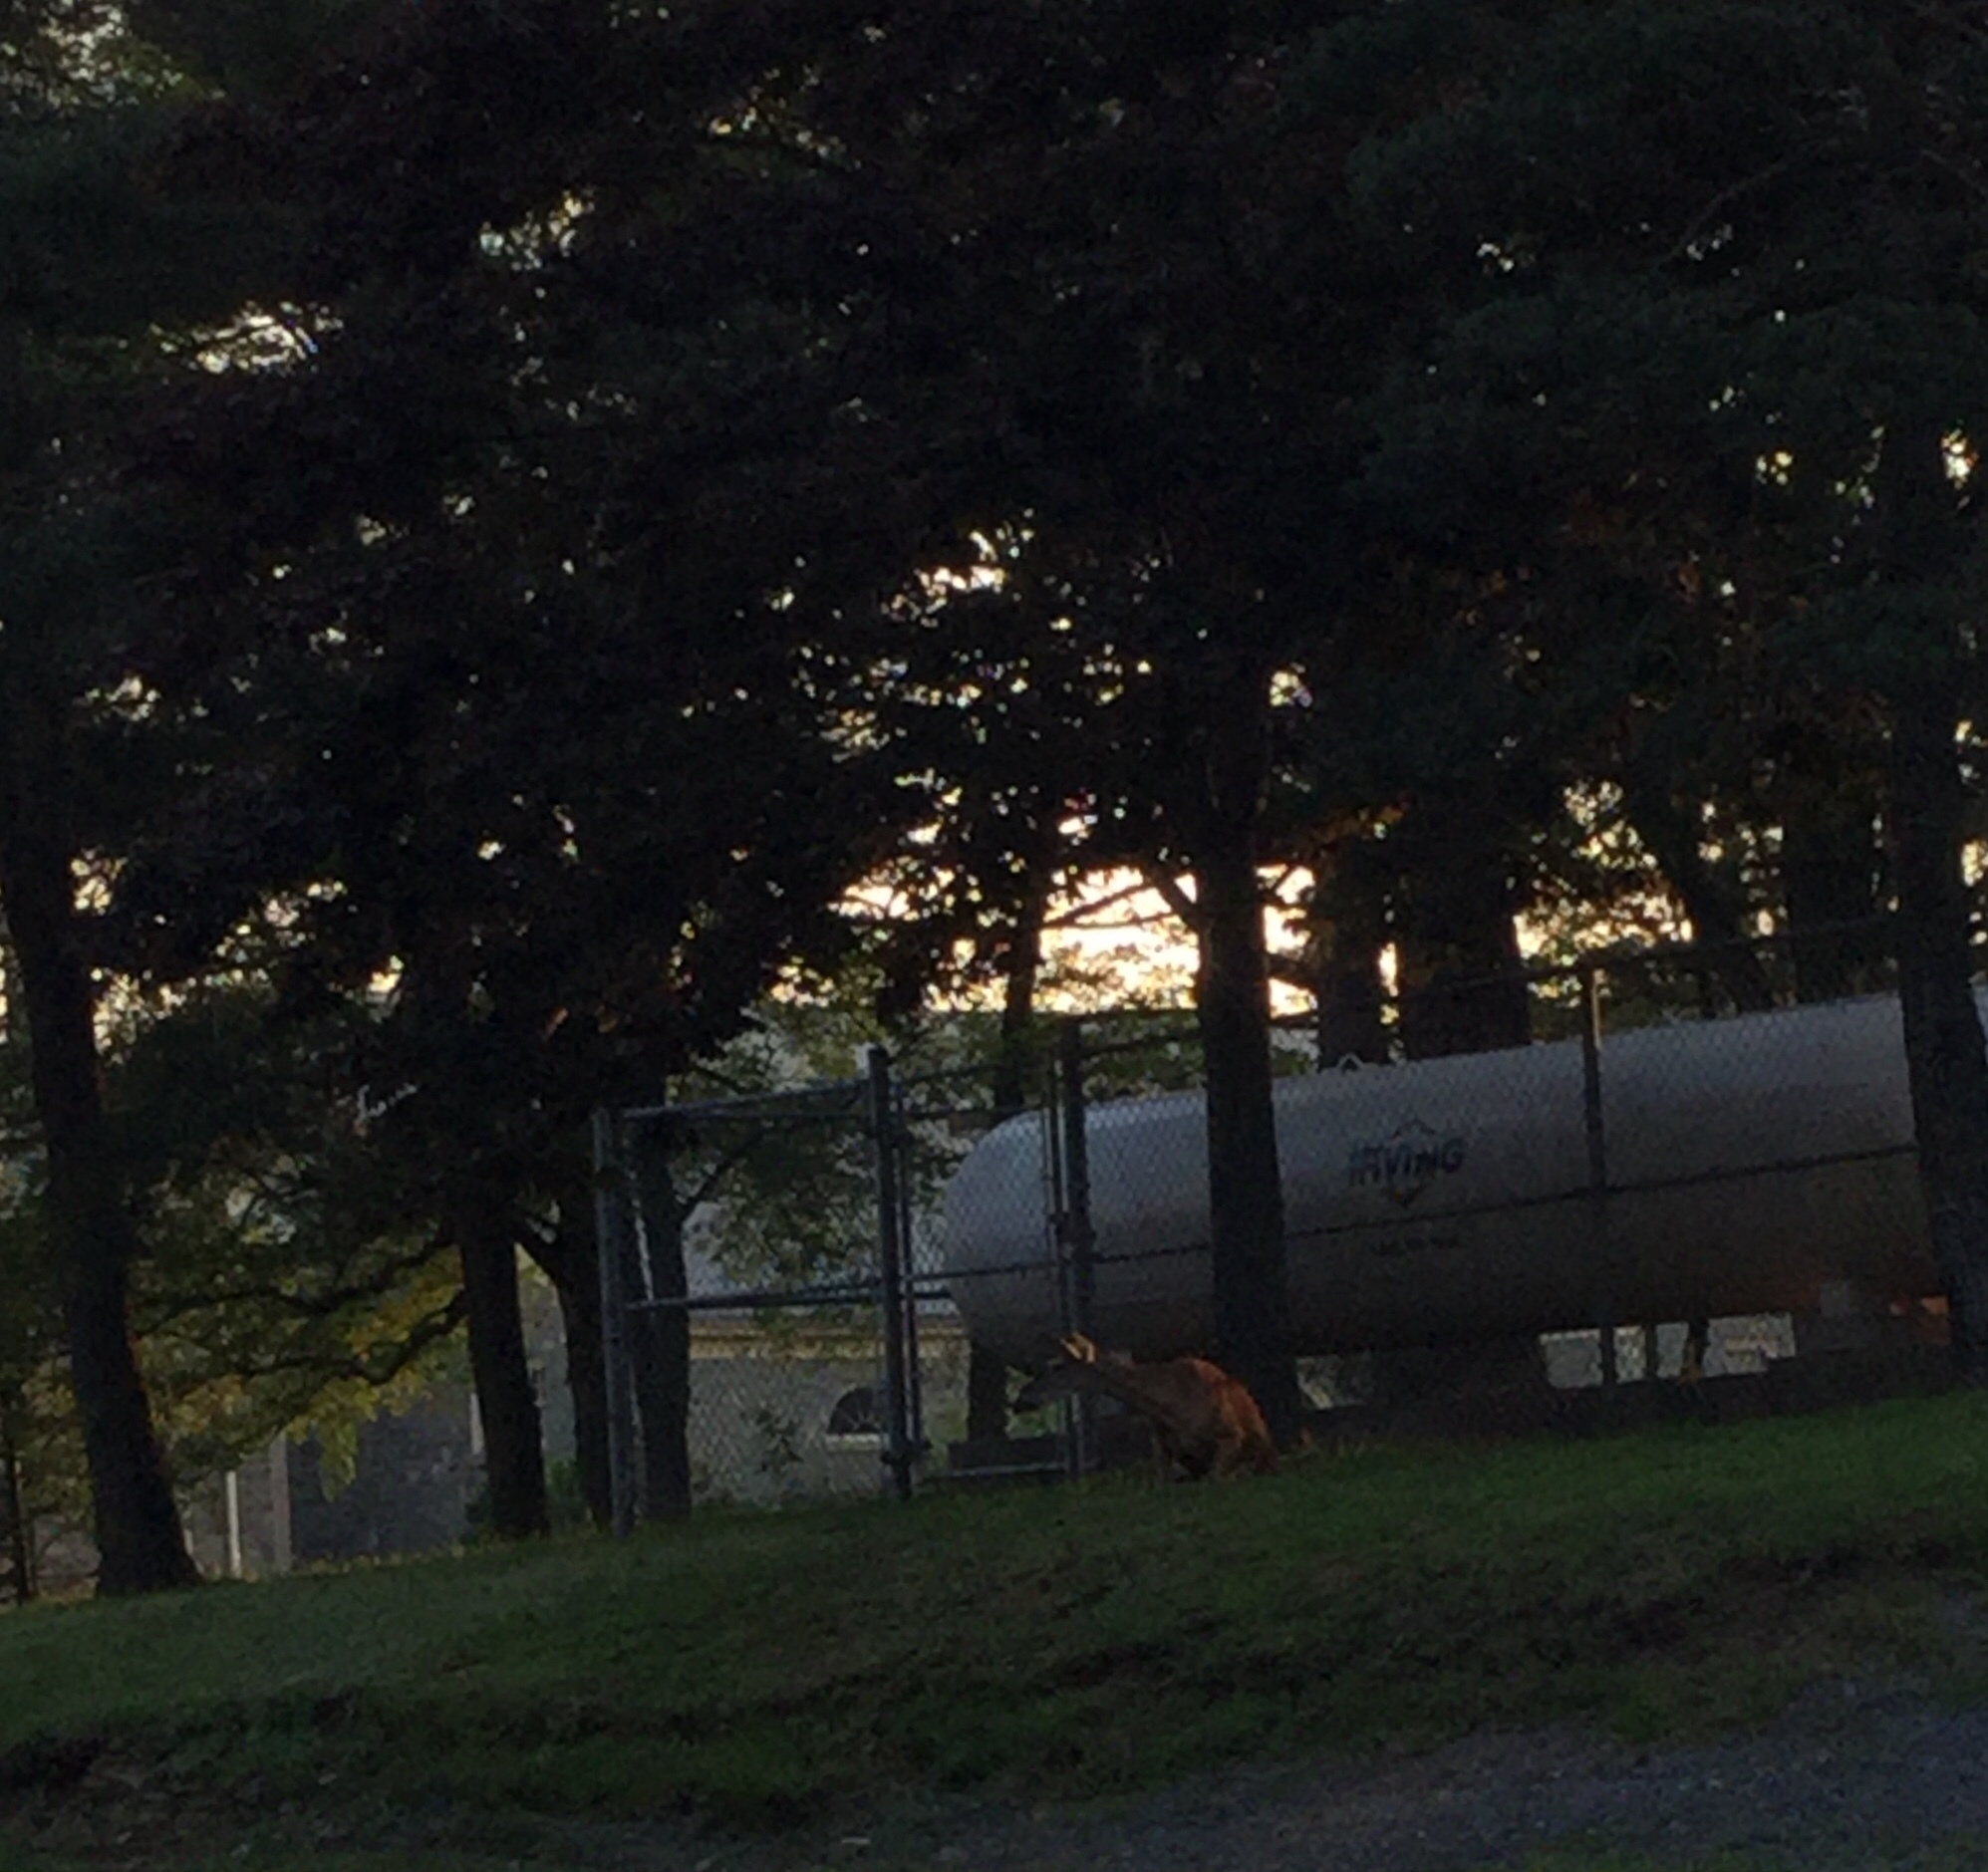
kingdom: Animalia
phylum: Chordata
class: Mammalia
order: Artiodactyla
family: Cervidae
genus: Odocoileus
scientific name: Odocoileus virginianus
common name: White-tailed deer
